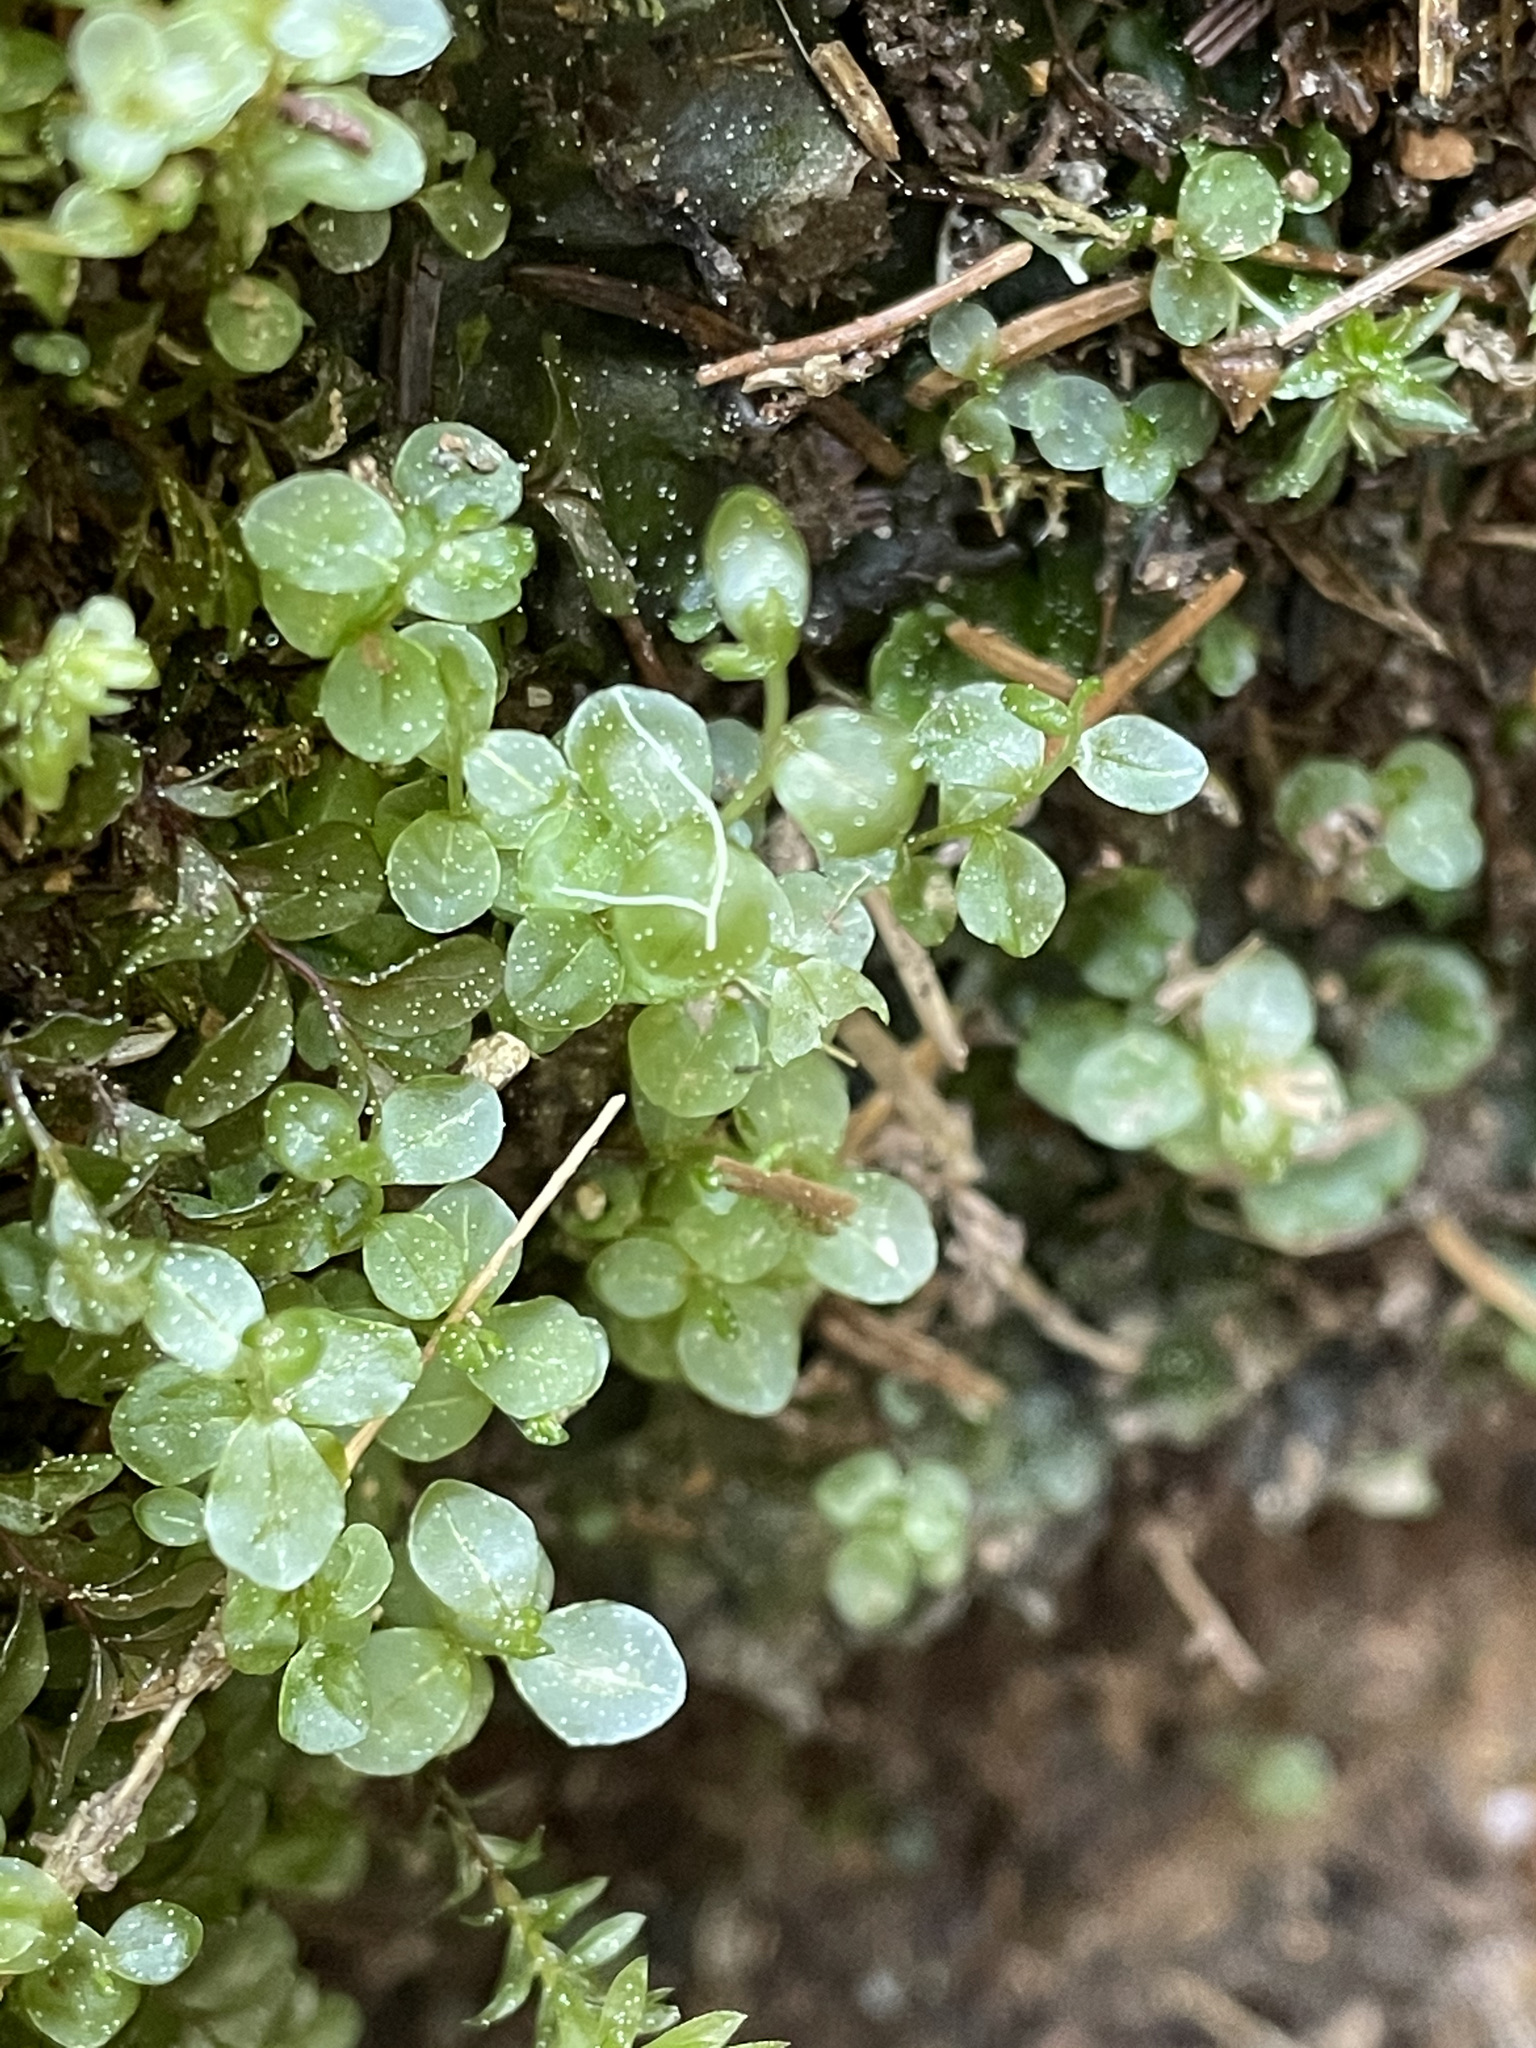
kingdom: Plantae
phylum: Bryophyta
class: Bryopsida
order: Bryales
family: Mniaceae
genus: Rhizomnium
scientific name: Rhizomnium punctatum
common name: Dotted leafy moss
